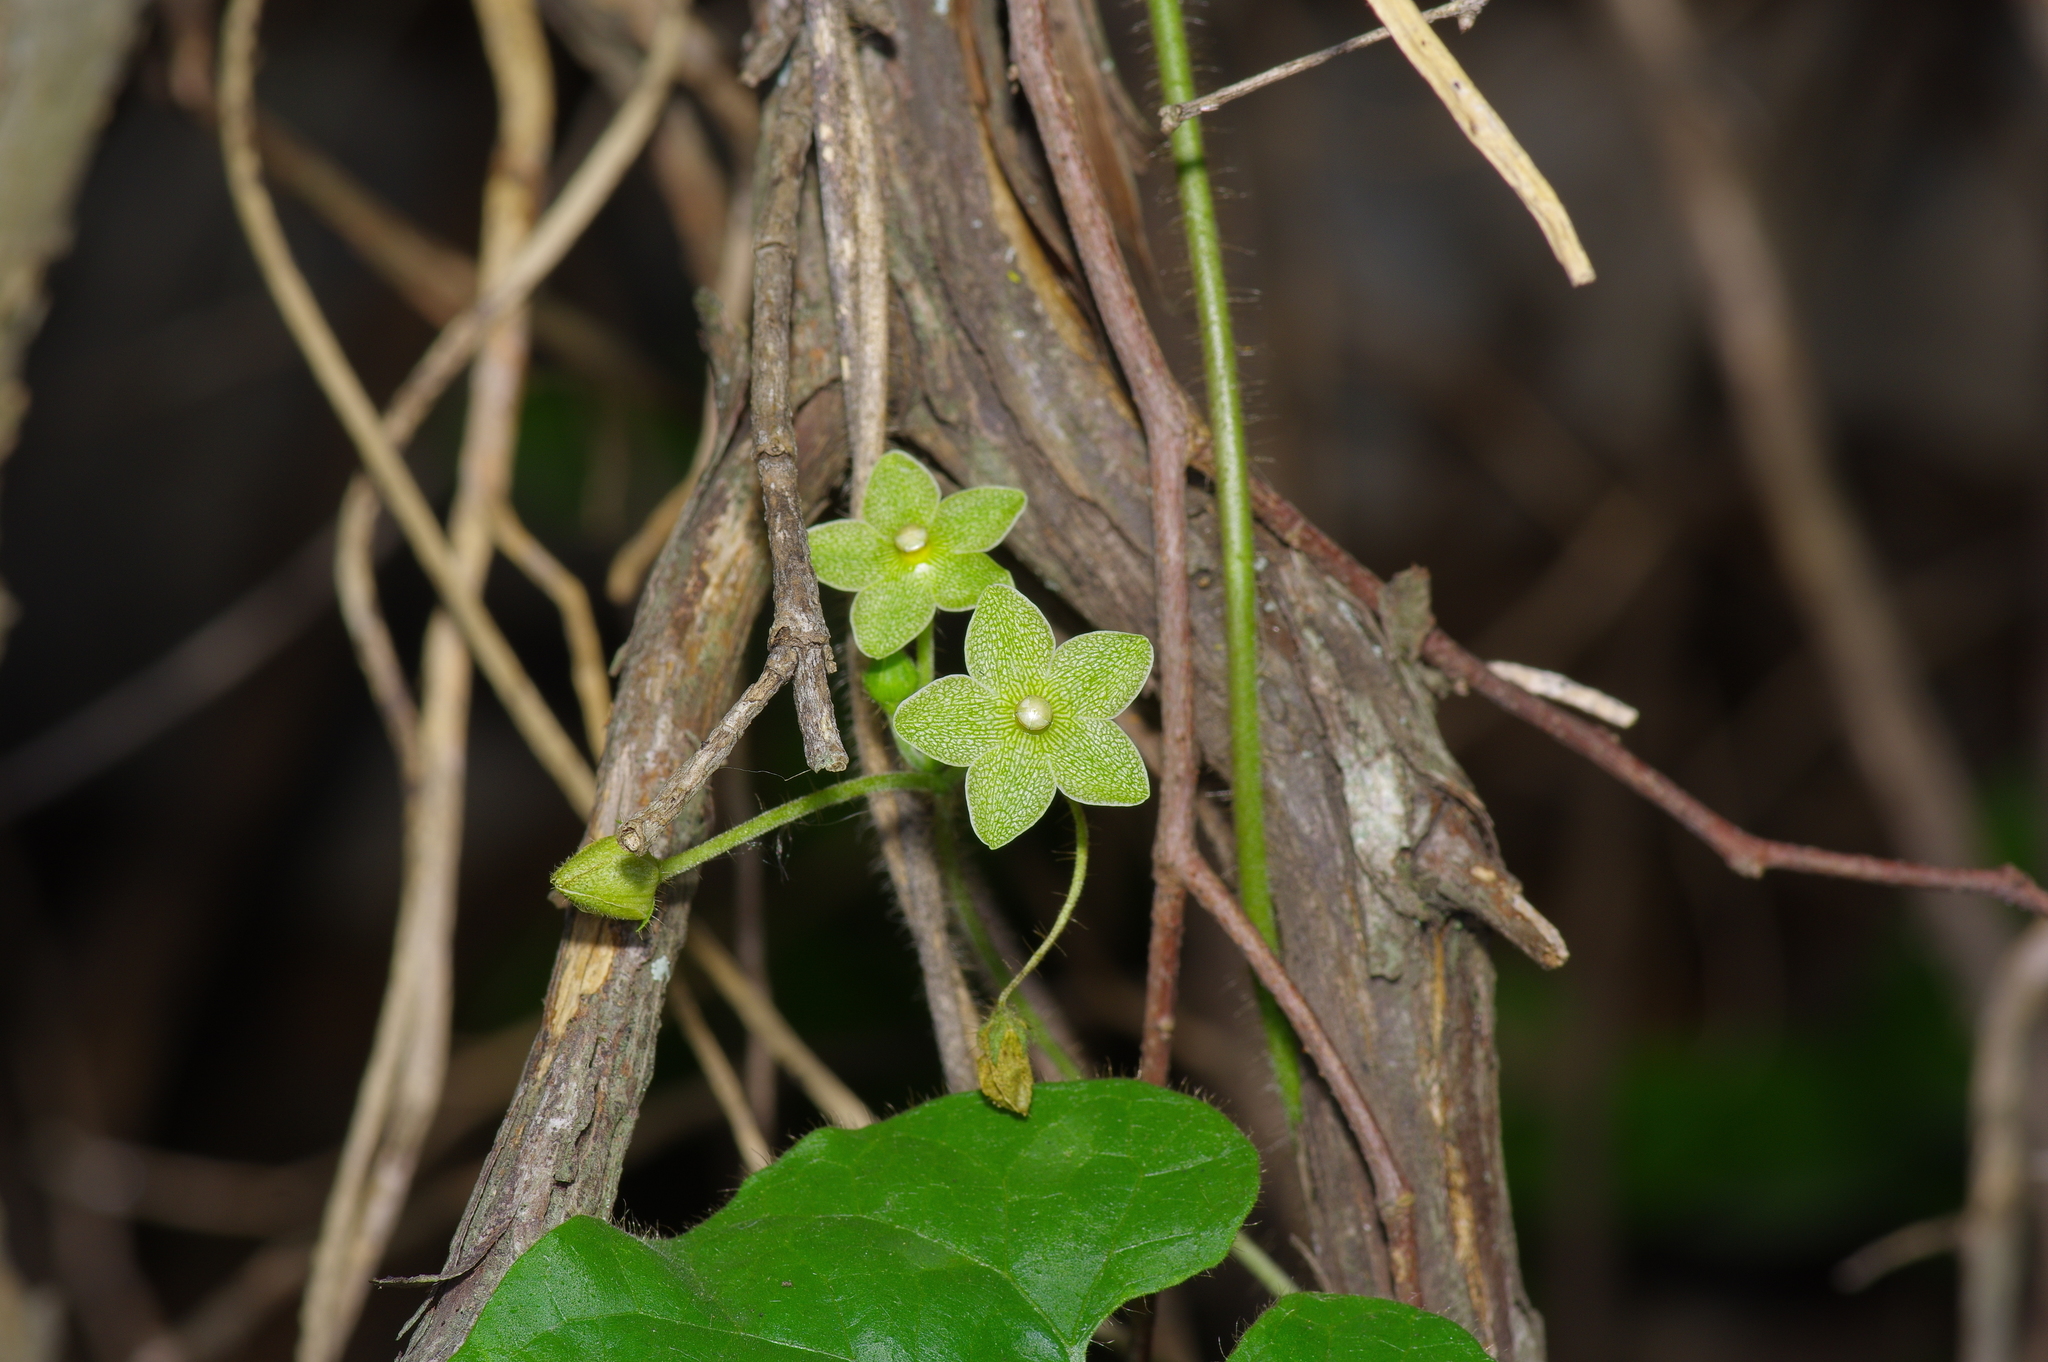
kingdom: Plantae
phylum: Tracheophyta
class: Magnoliopsida
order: Gentianales
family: Apocynaceae
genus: Dictyanthus
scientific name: Dictyanthus reticulatus
